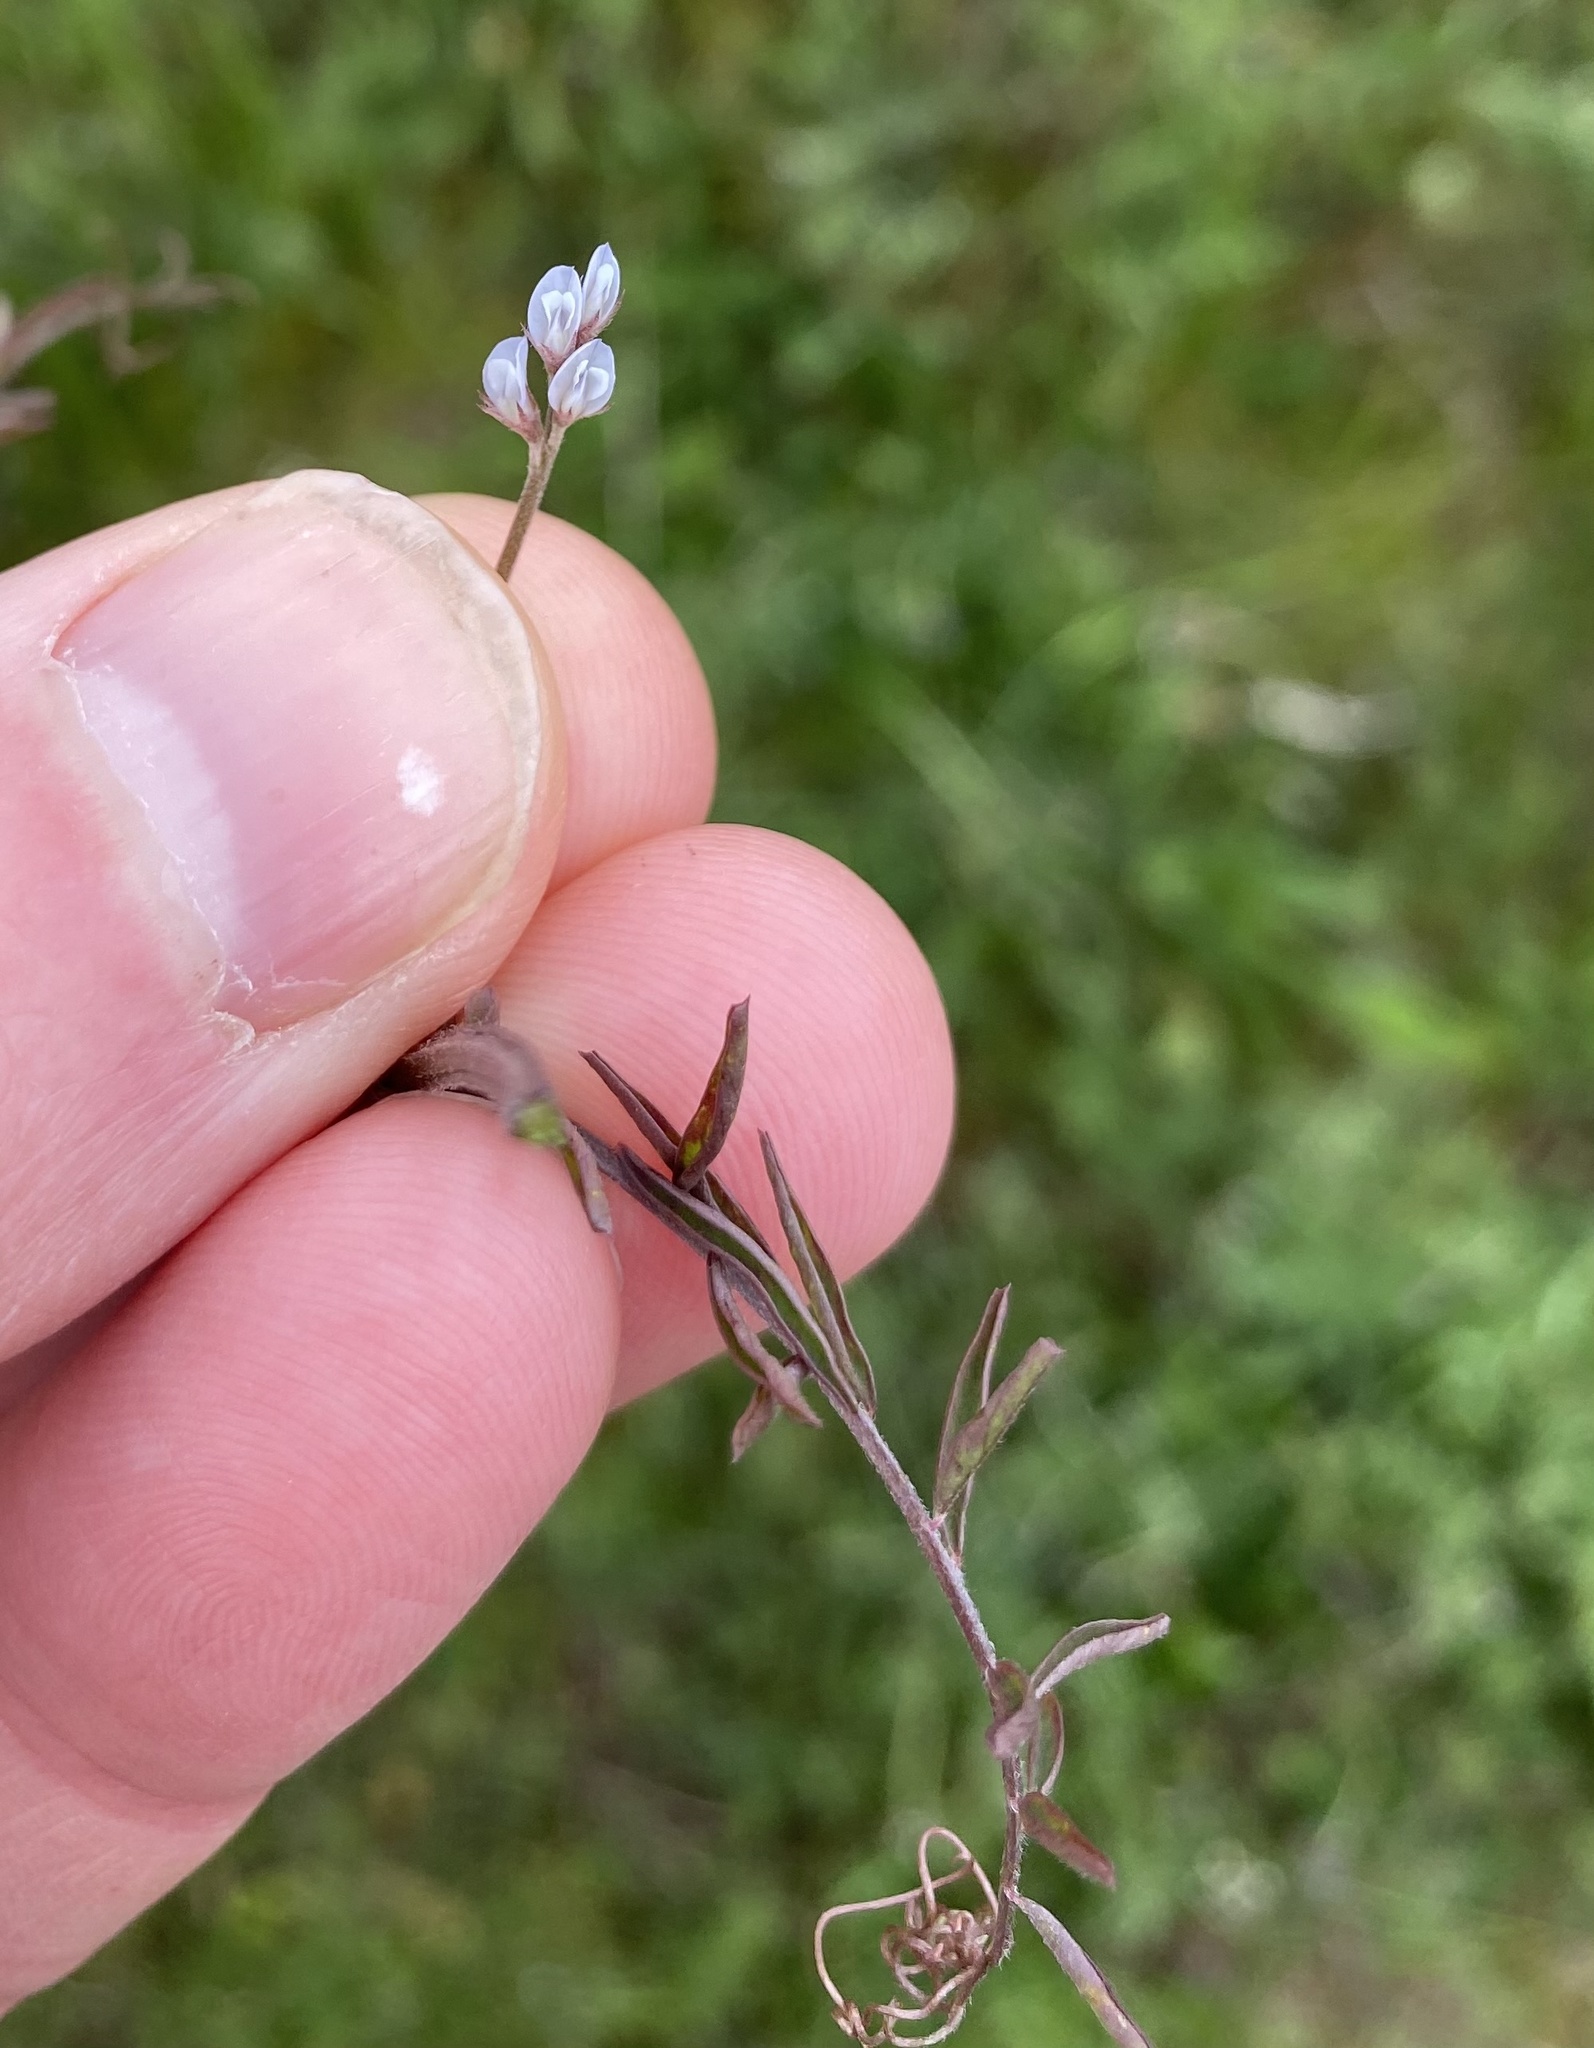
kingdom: Plantae
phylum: Tracheophyta
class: Magnoliopsida
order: Fabales
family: Fabaceae
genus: Vicia
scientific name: Vicia hirsuta
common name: Tiny vetch
